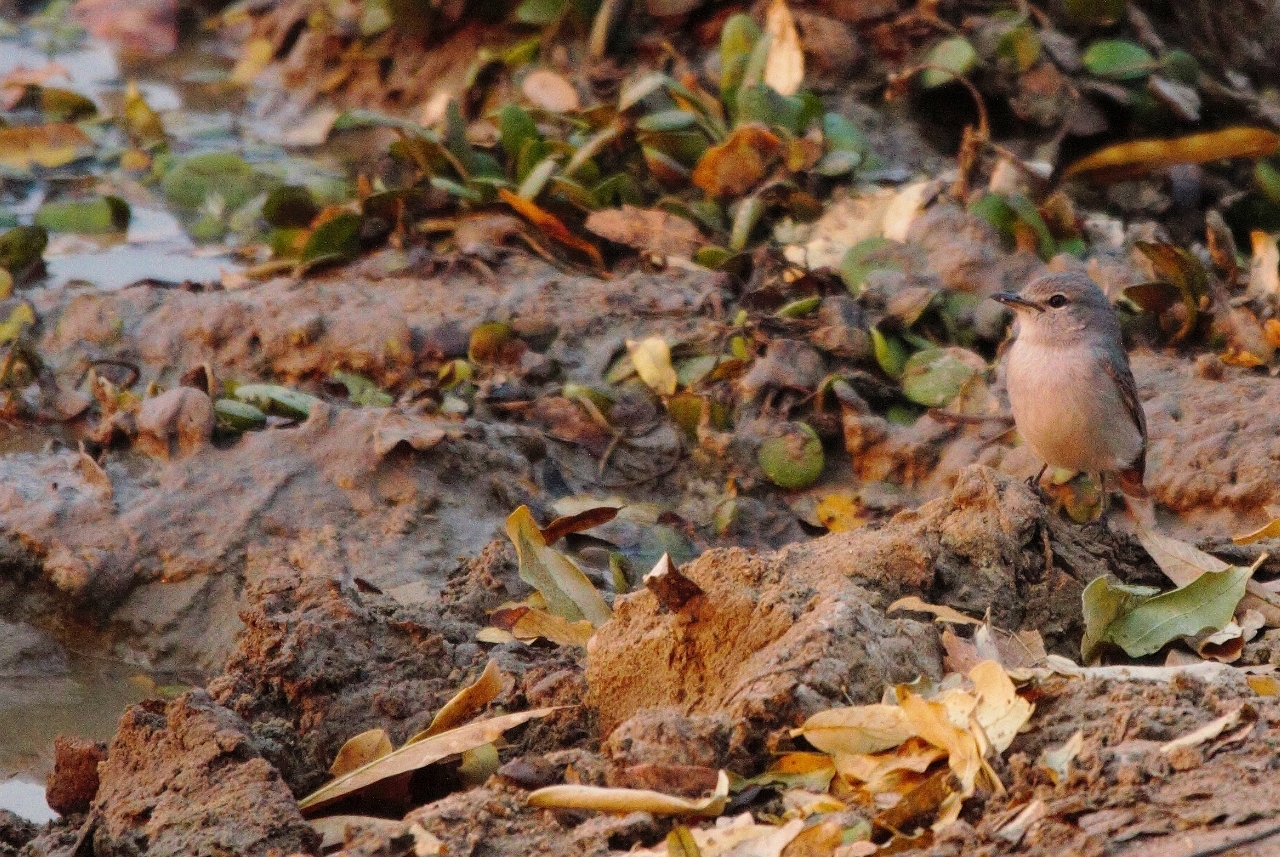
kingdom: Animalia
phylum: Chordata
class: Aves
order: Passeriformes
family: Muscicapidae
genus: Muscicapa
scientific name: Muscicapa caerulescens
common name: Ashy flycatcher
